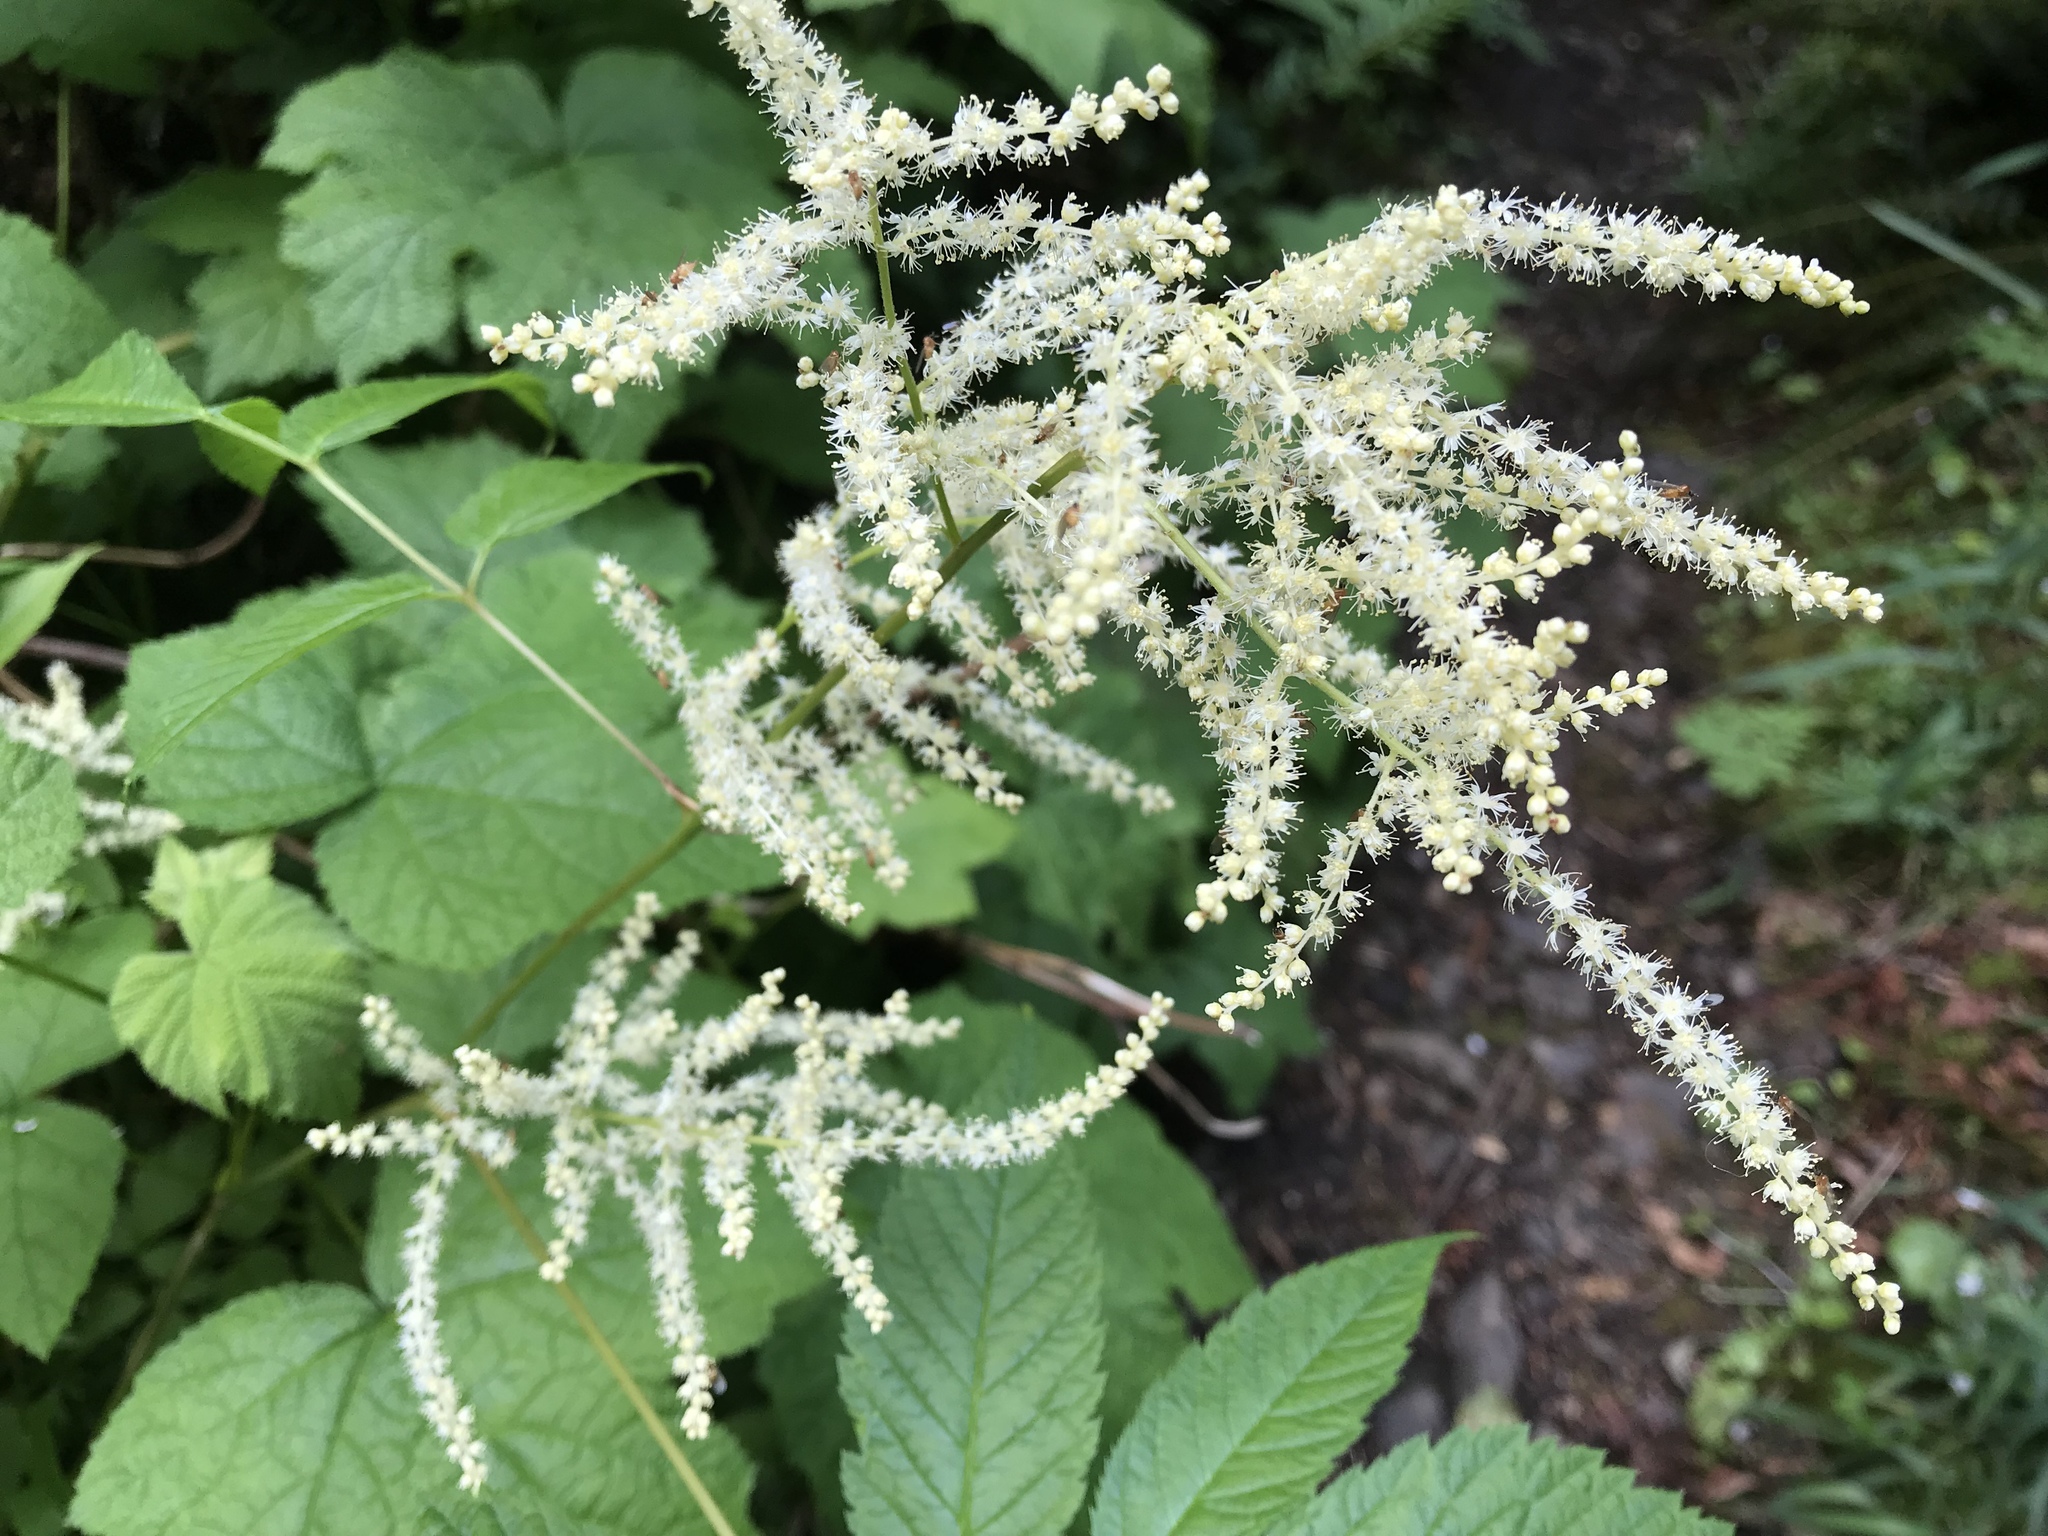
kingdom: Plantae
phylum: Tracheophyta
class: Magnoliopsida
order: Rosales
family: Rosaceae
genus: Aruncus
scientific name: Aruncus dioicus
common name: Buck's-beard
